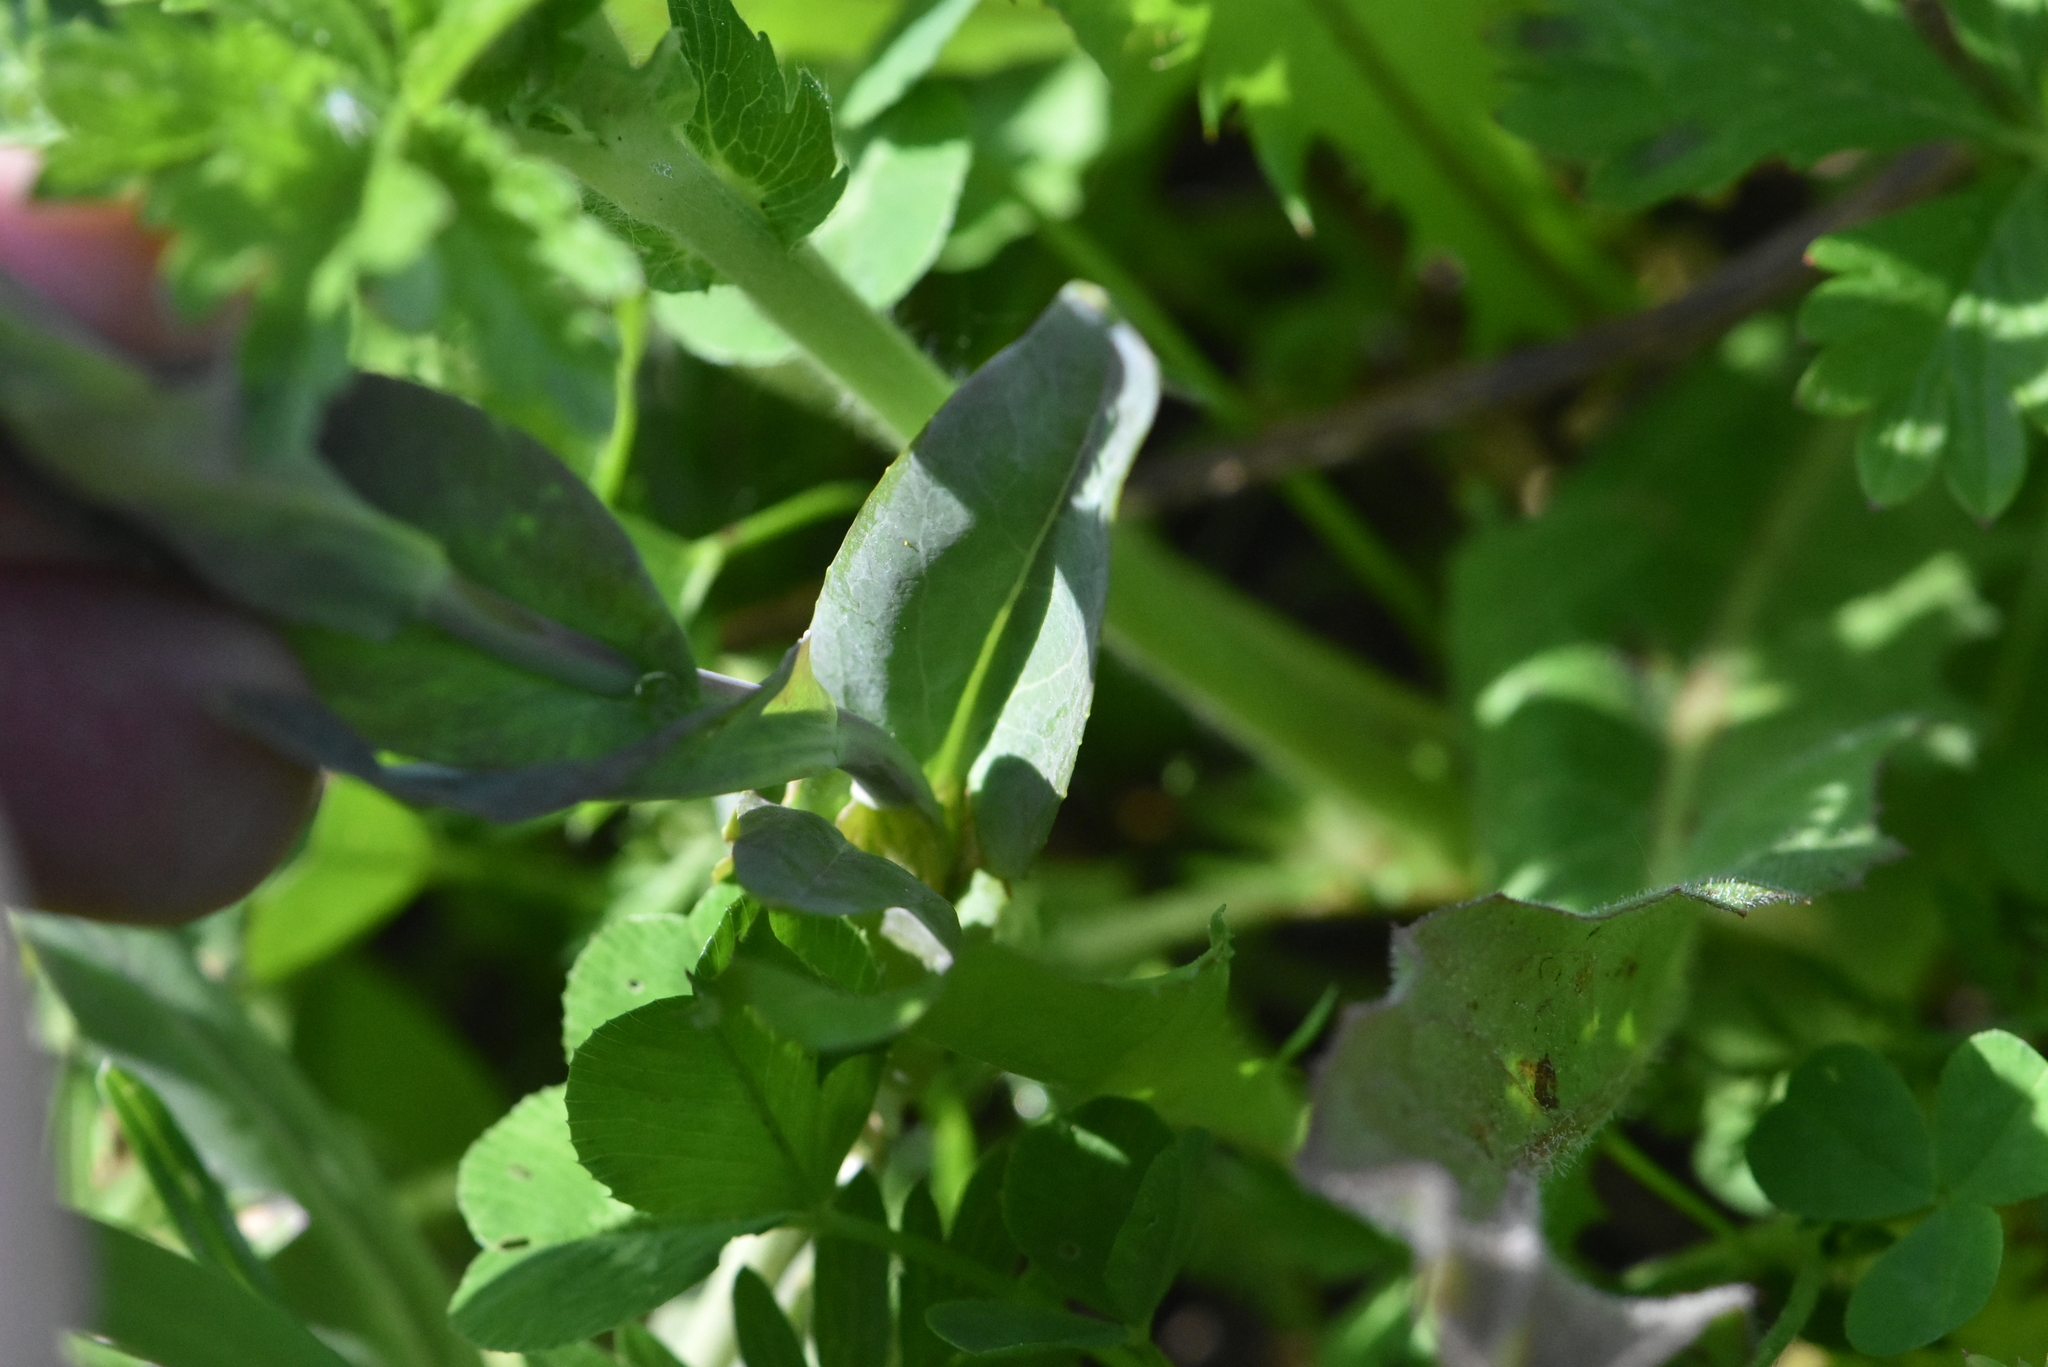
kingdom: Plantae
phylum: Tracheophyta
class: Magnoliopsida
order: Brassicales
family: Brassicaceae
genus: Turritis
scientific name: Turritis glabra
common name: Tower rockcress
